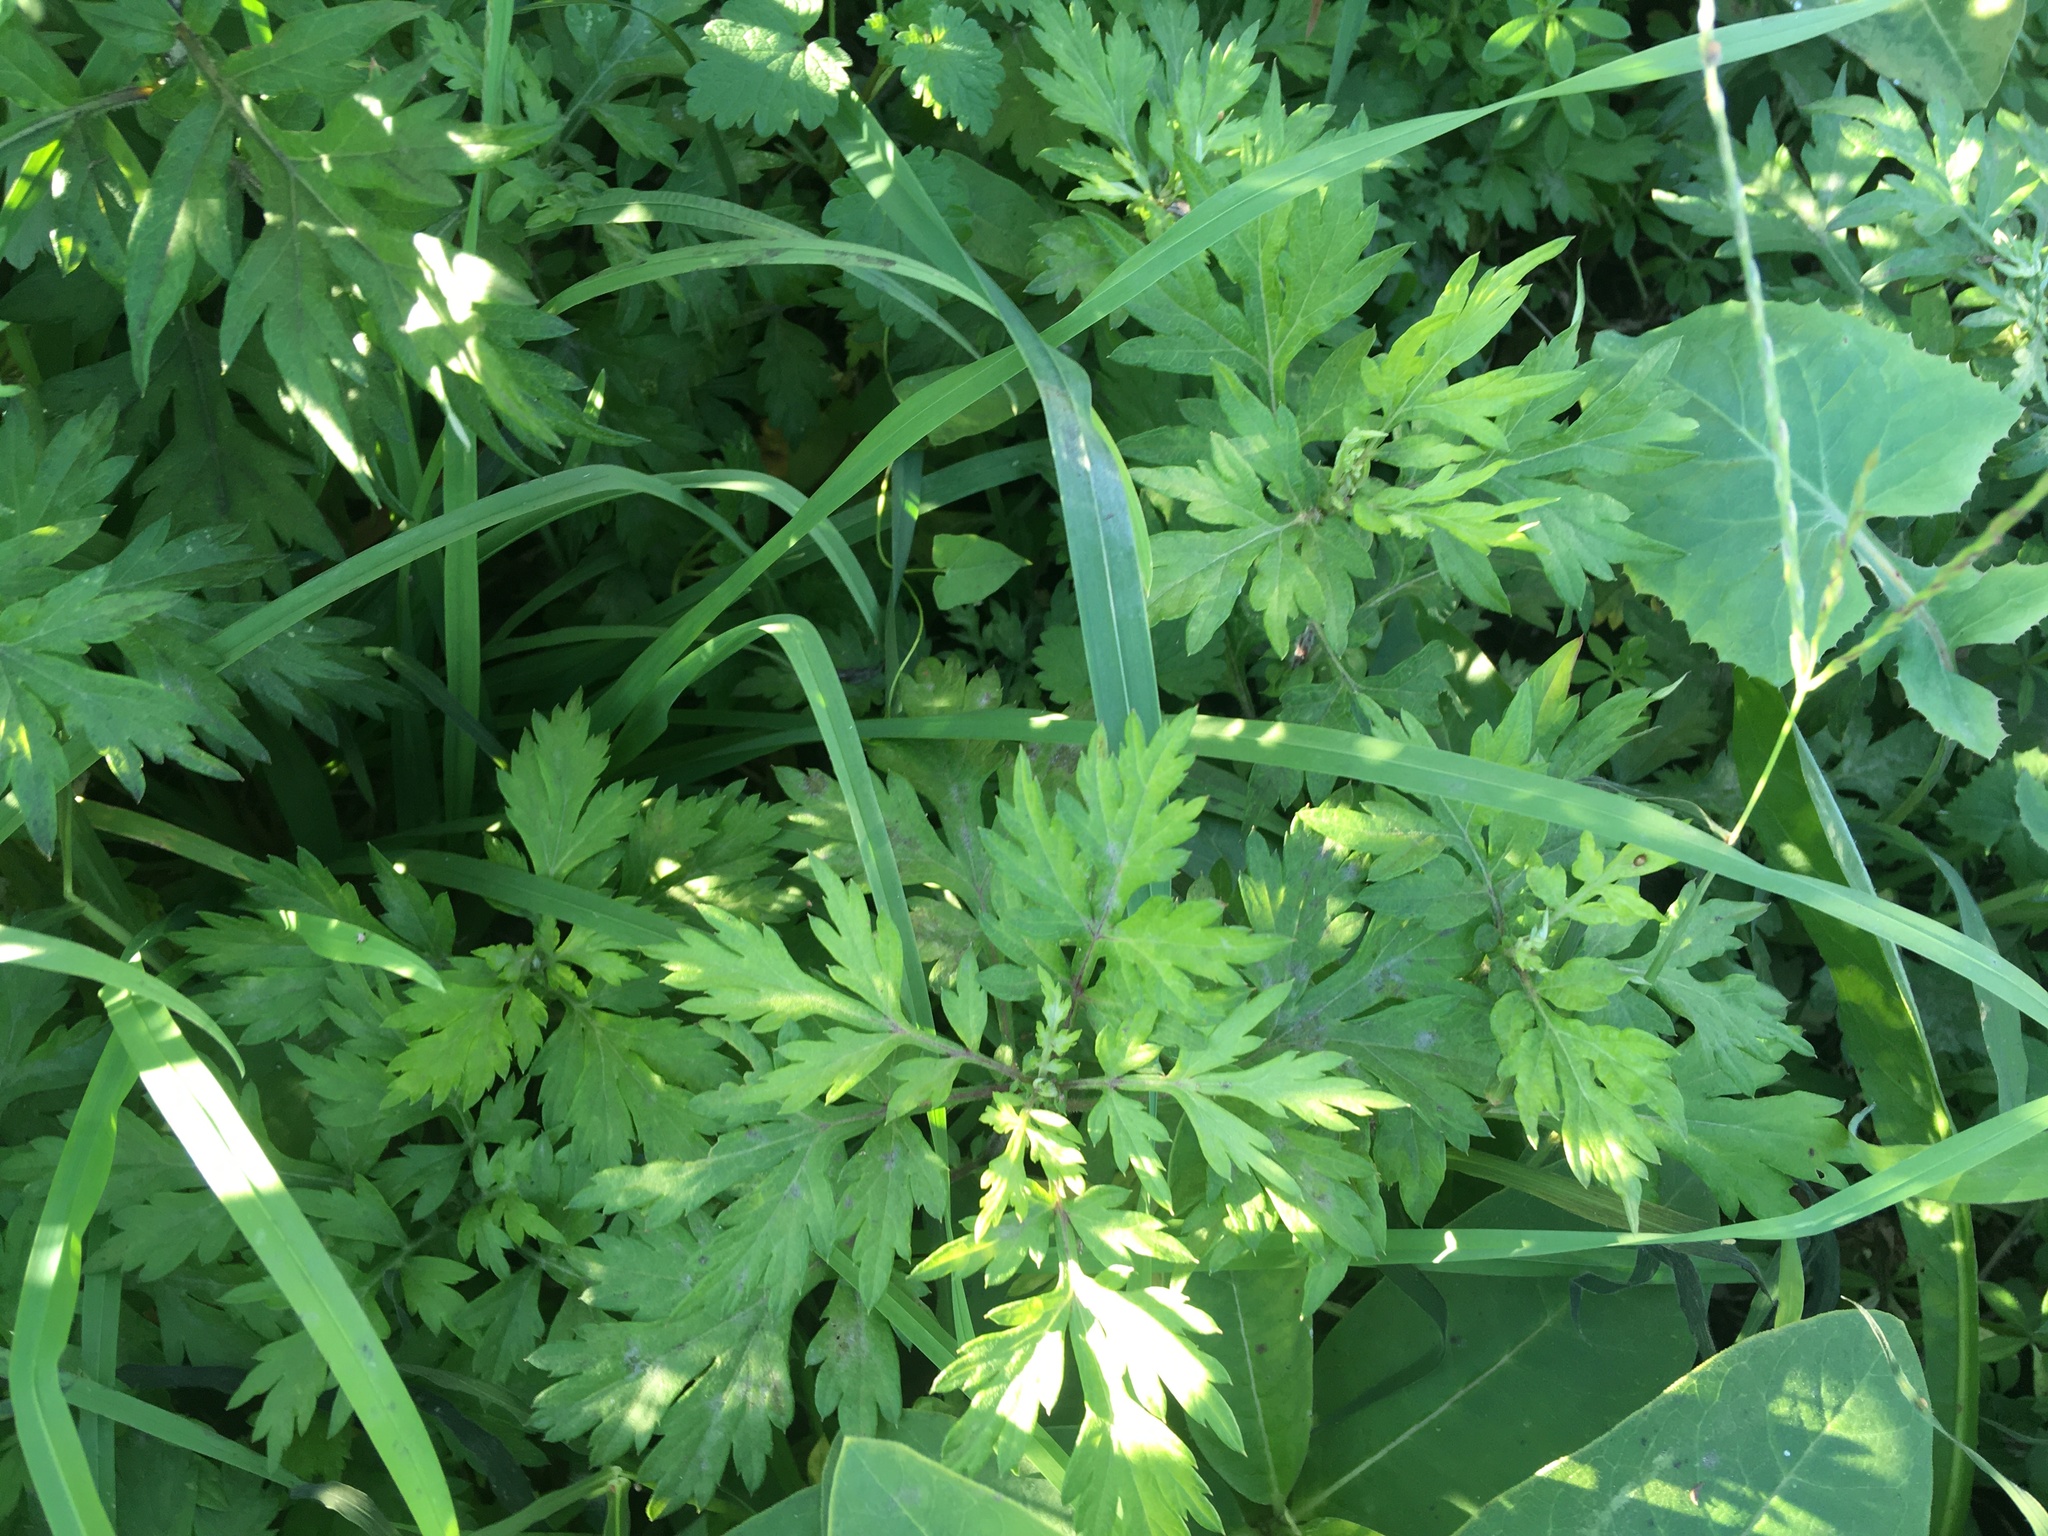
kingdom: Plantae
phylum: Tracheophyta
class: Magnoliopsida
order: Asterales
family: Asteraceae
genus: Artemisia
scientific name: Artemisia vulgaris
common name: Mugwort
